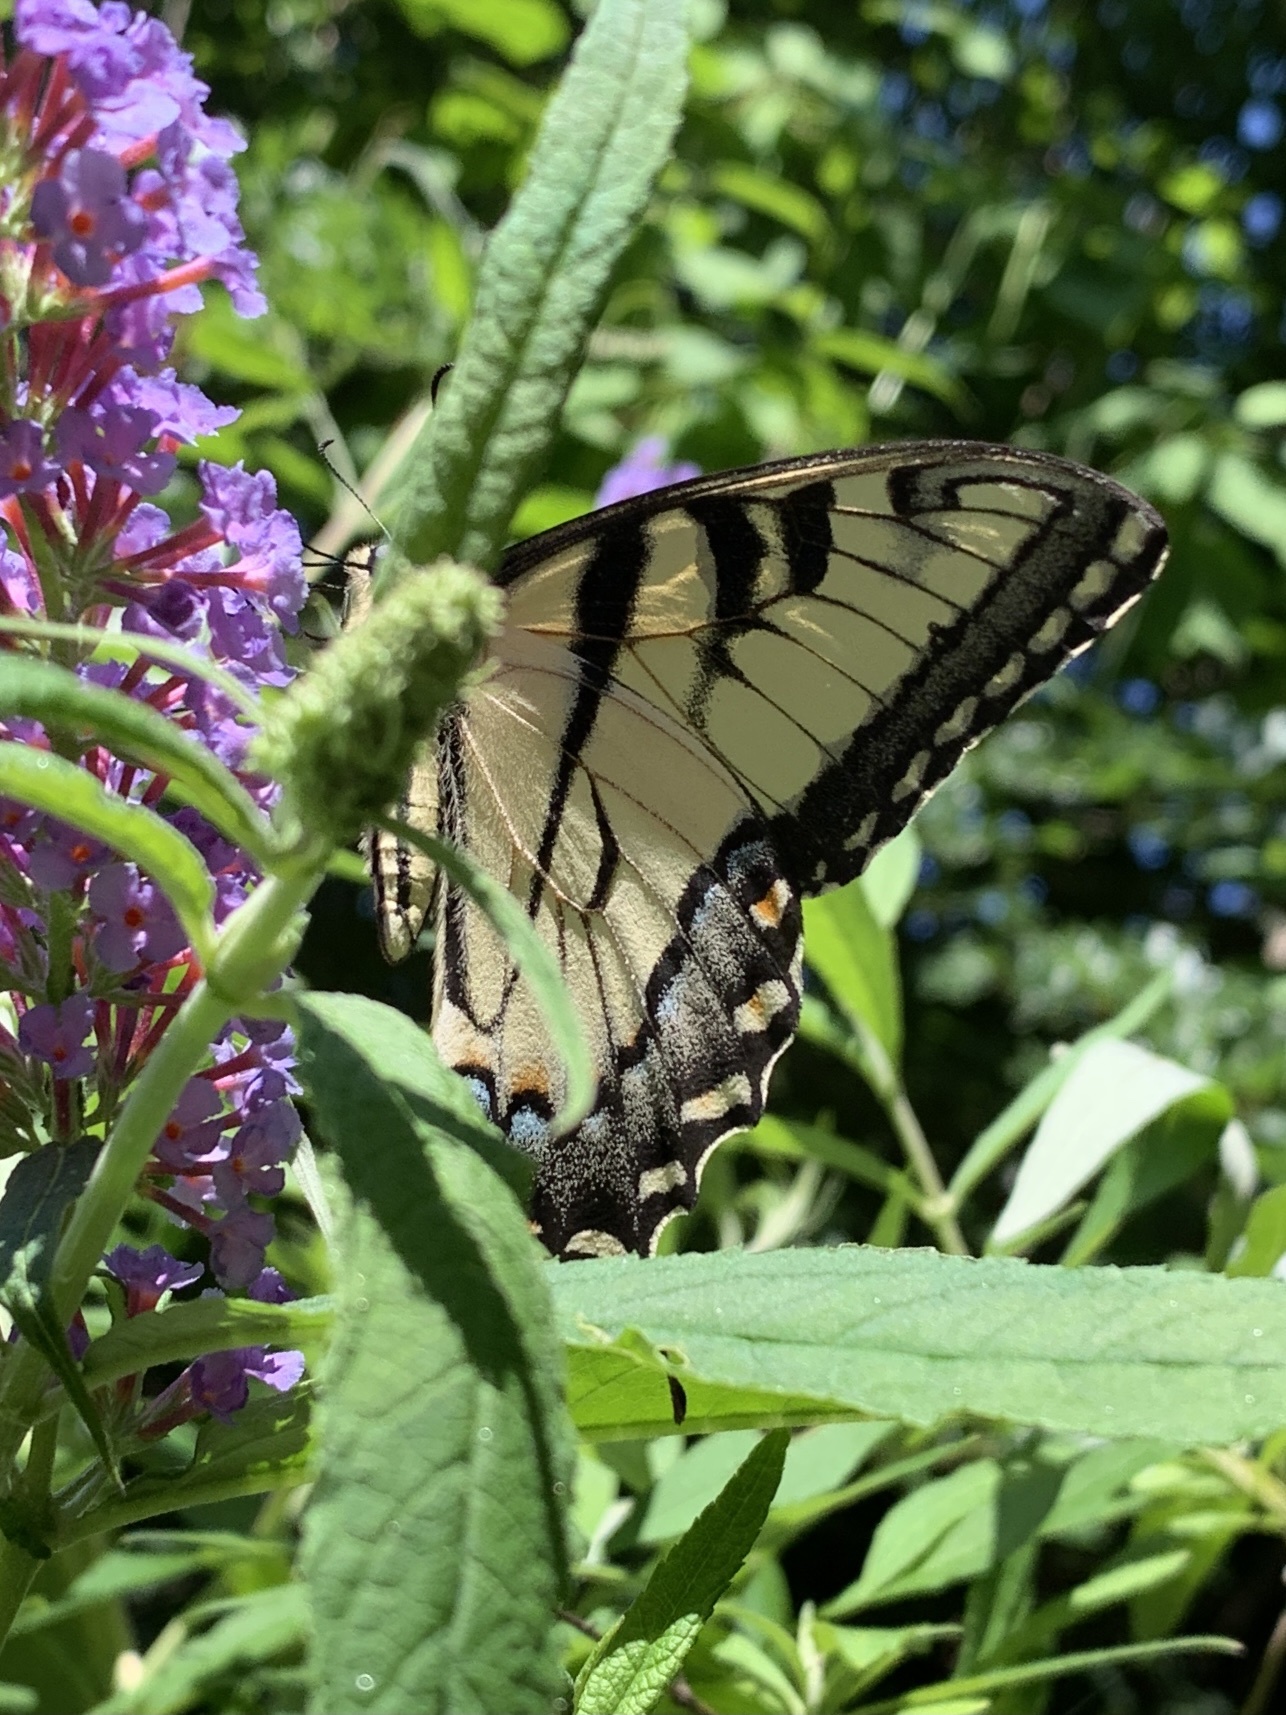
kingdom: Animalia
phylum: Arthropoda
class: Insecta
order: Lepidoptera
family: Papilionidae
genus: Papilio
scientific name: Papilio glaucus
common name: Tiger swallowtail
